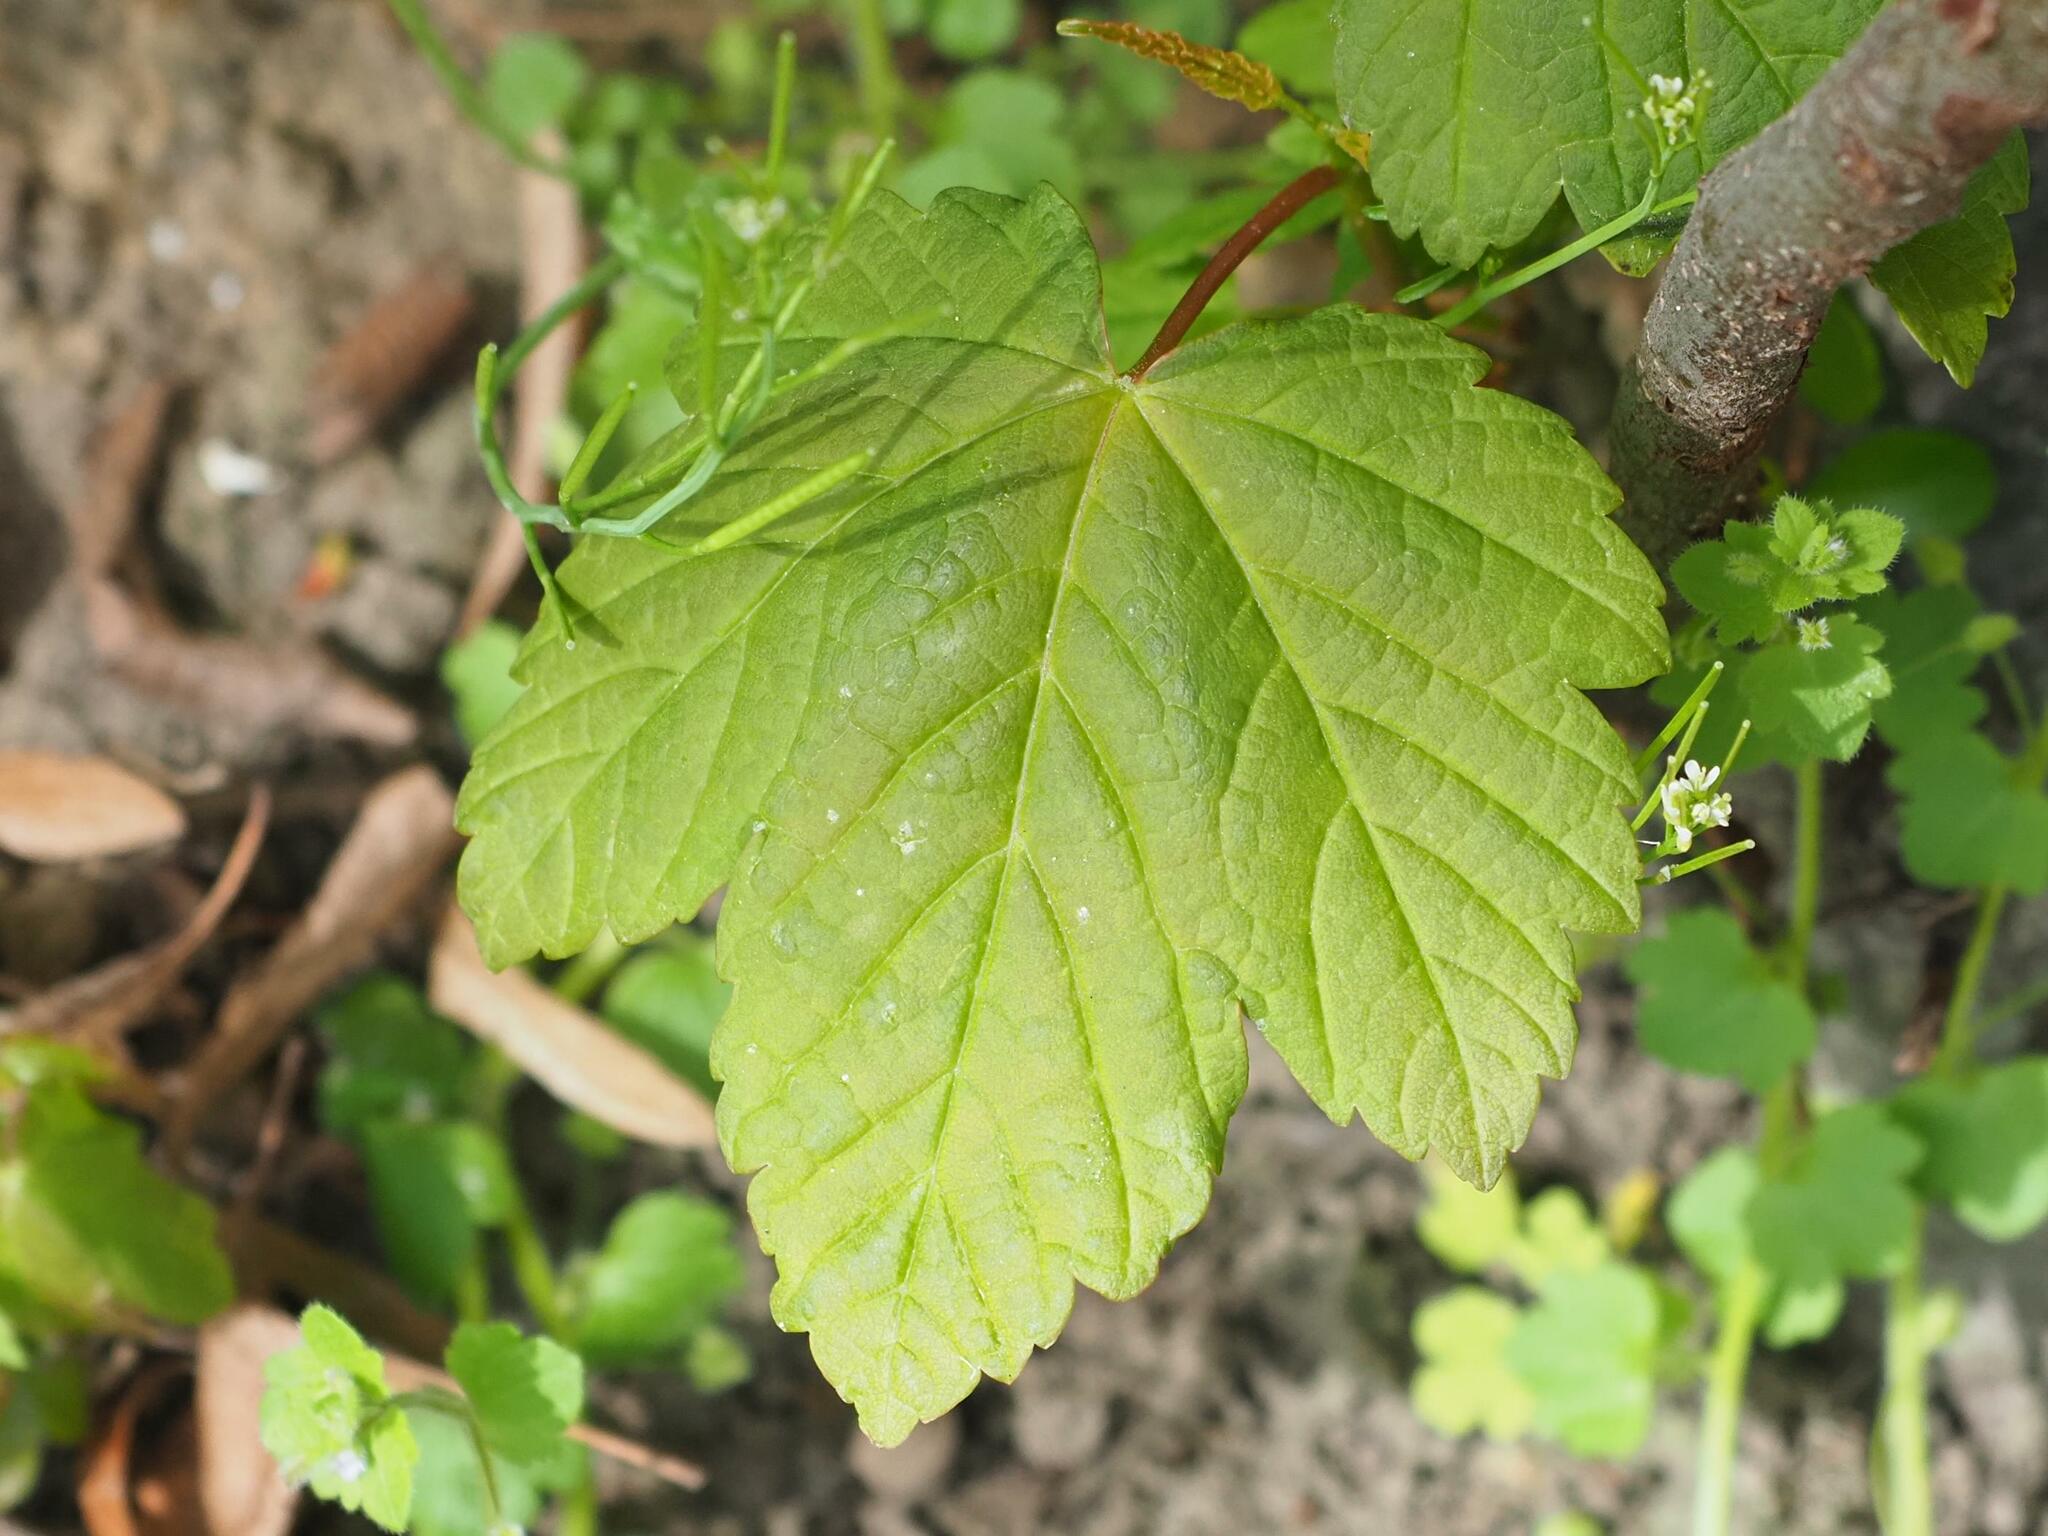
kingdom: Plantae
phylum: Tracheophyta
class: Magnoliopsida
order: Sapindales
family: Sapindaceae
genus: Acer
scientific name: Acer pseudoplatanus
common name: Sycamore
